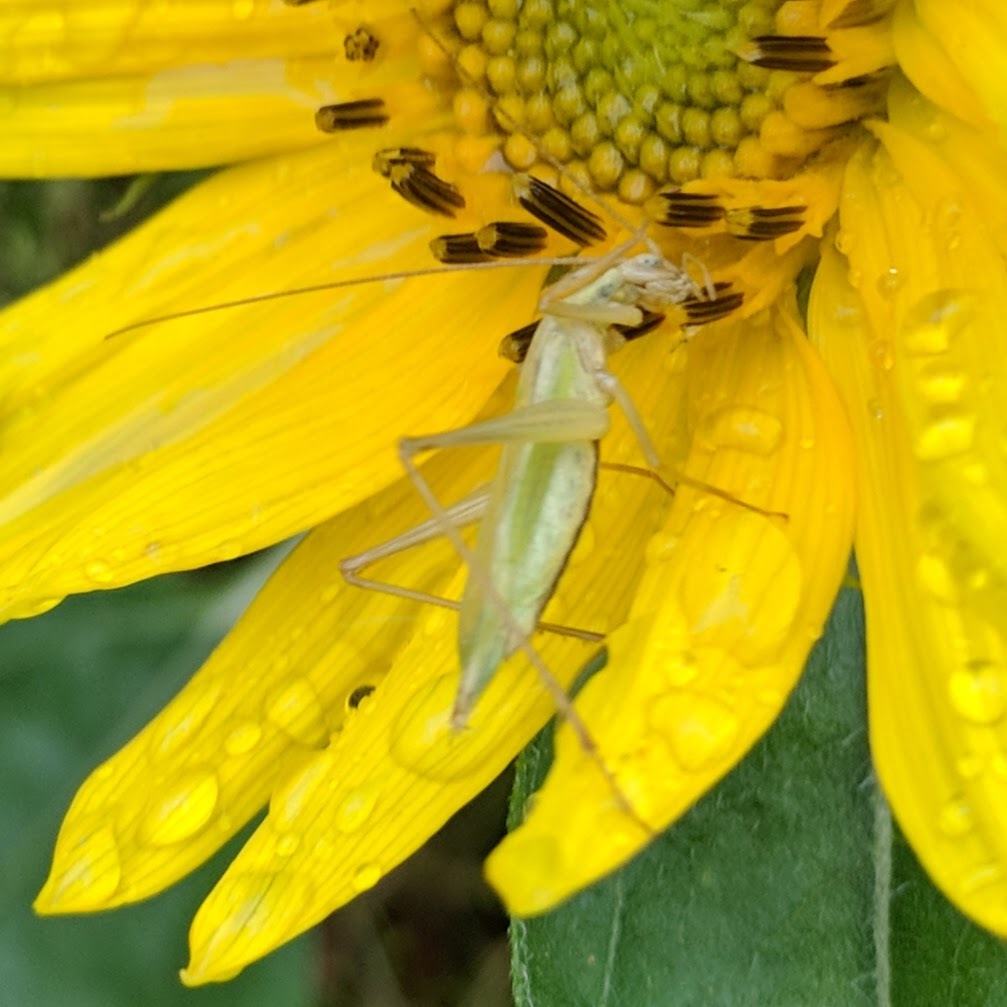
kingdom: Animalia
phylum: Arthropoda
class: Insecta
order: Orthoptera
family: Gryllidae
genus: Oecanthus
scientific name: Oecanthus longicauda
